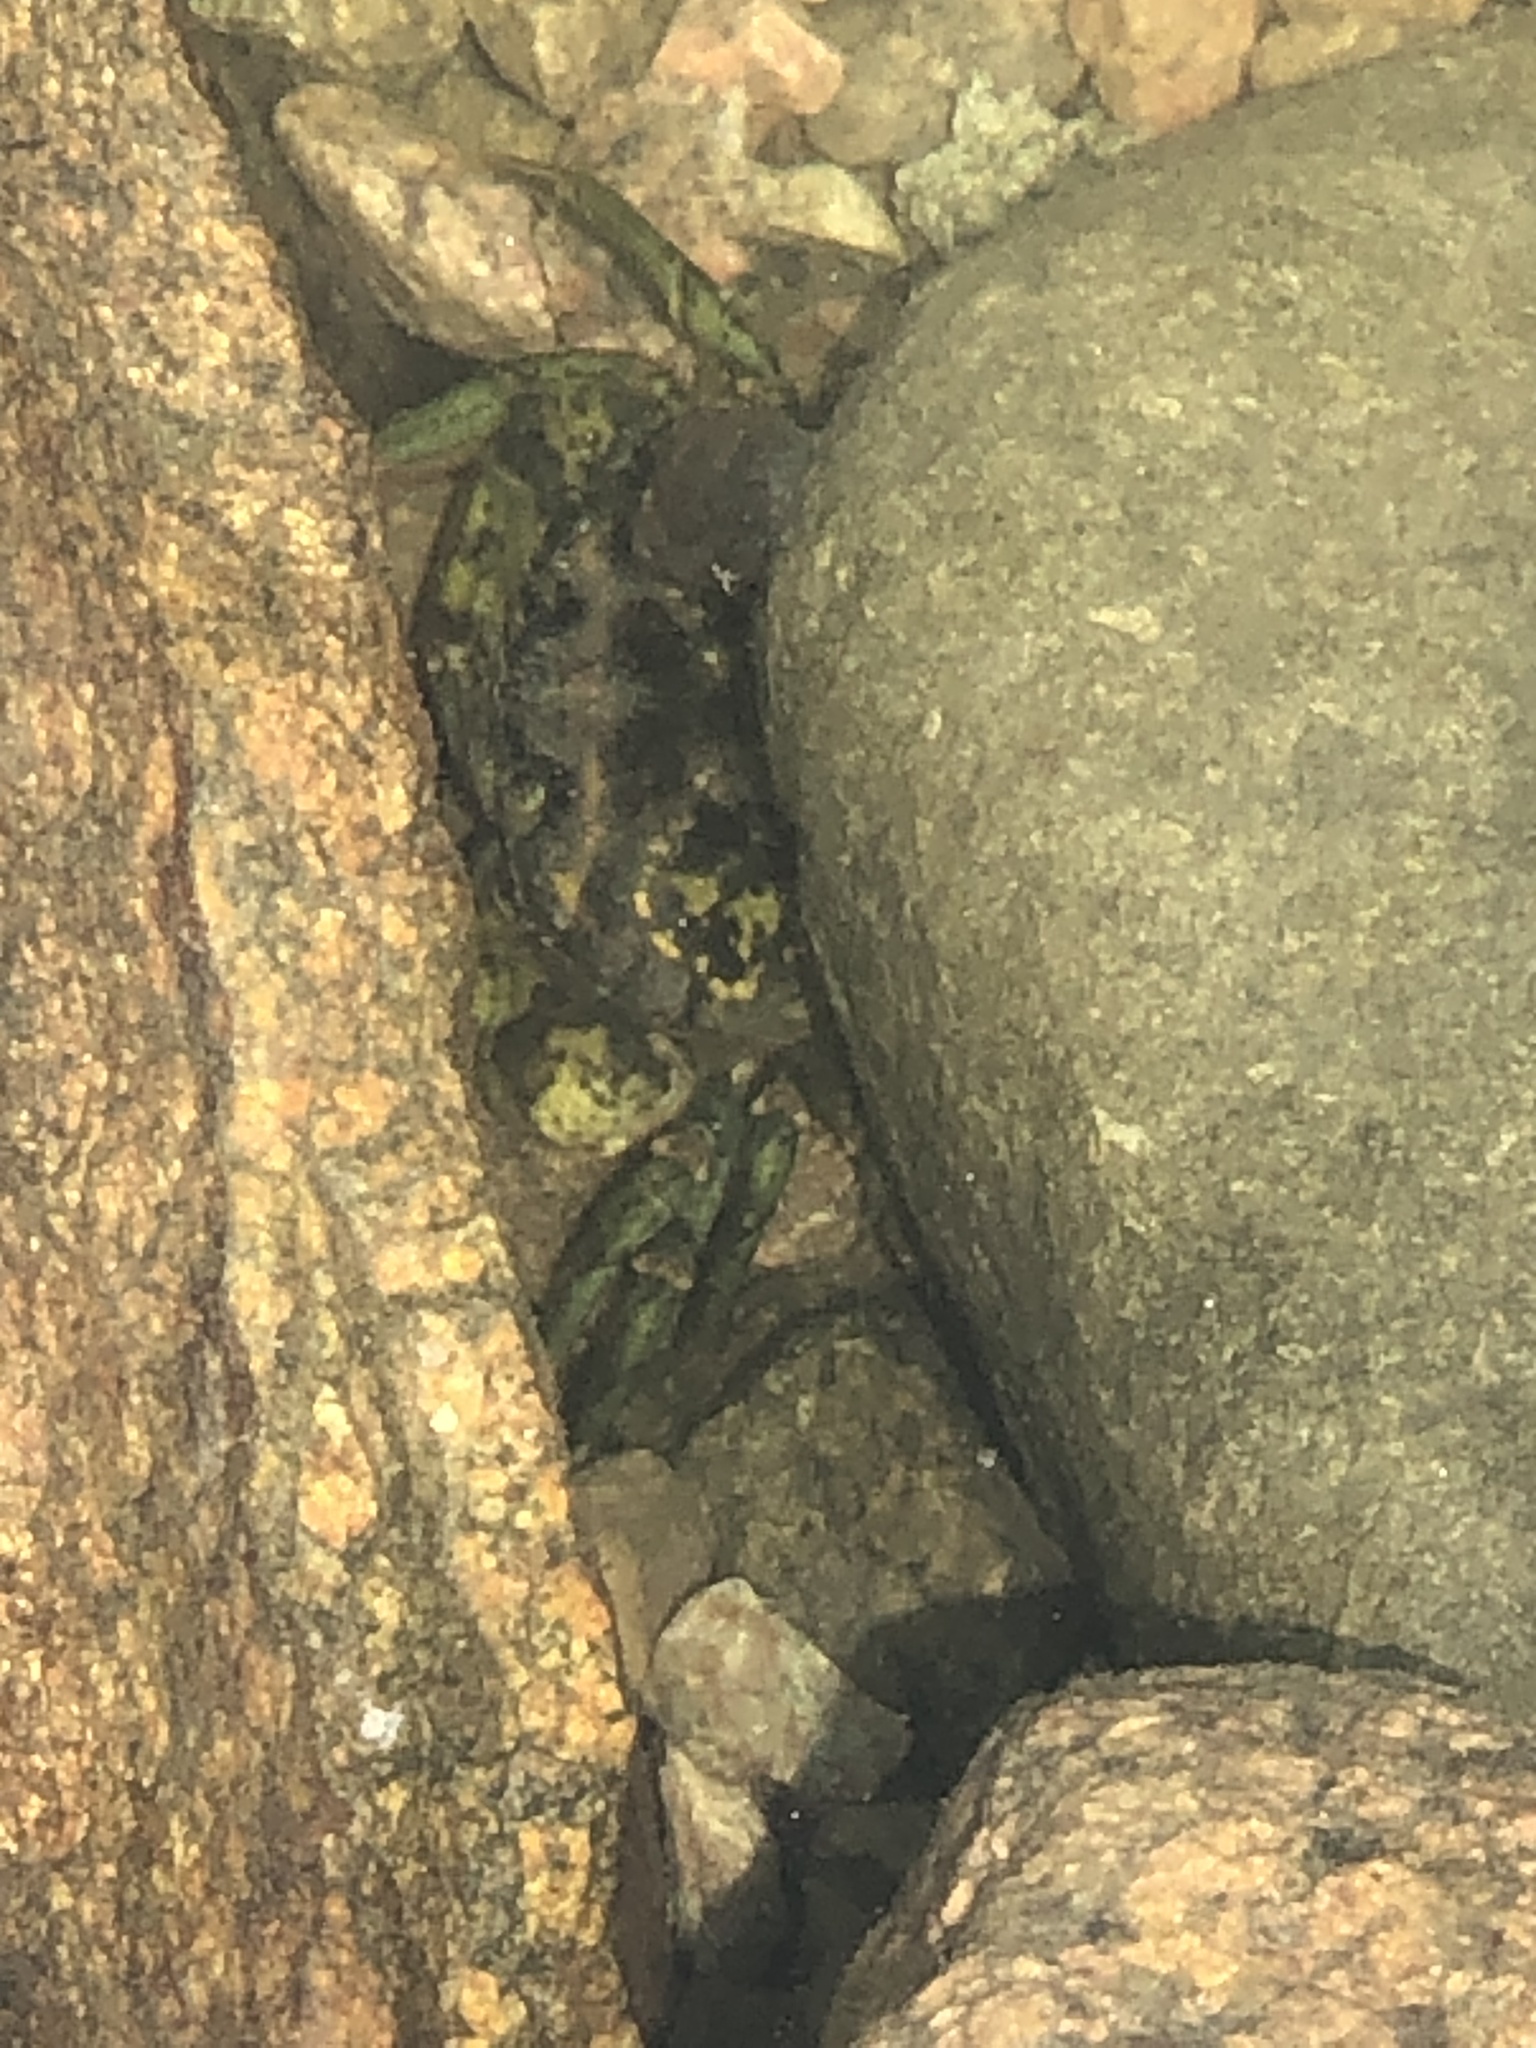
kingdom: Animalia
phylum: Arthropoda
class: Malacostraca
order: Decapoda
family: Carcinidae
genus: Carcinus
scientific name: Carcinus maenas
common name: European green crab
